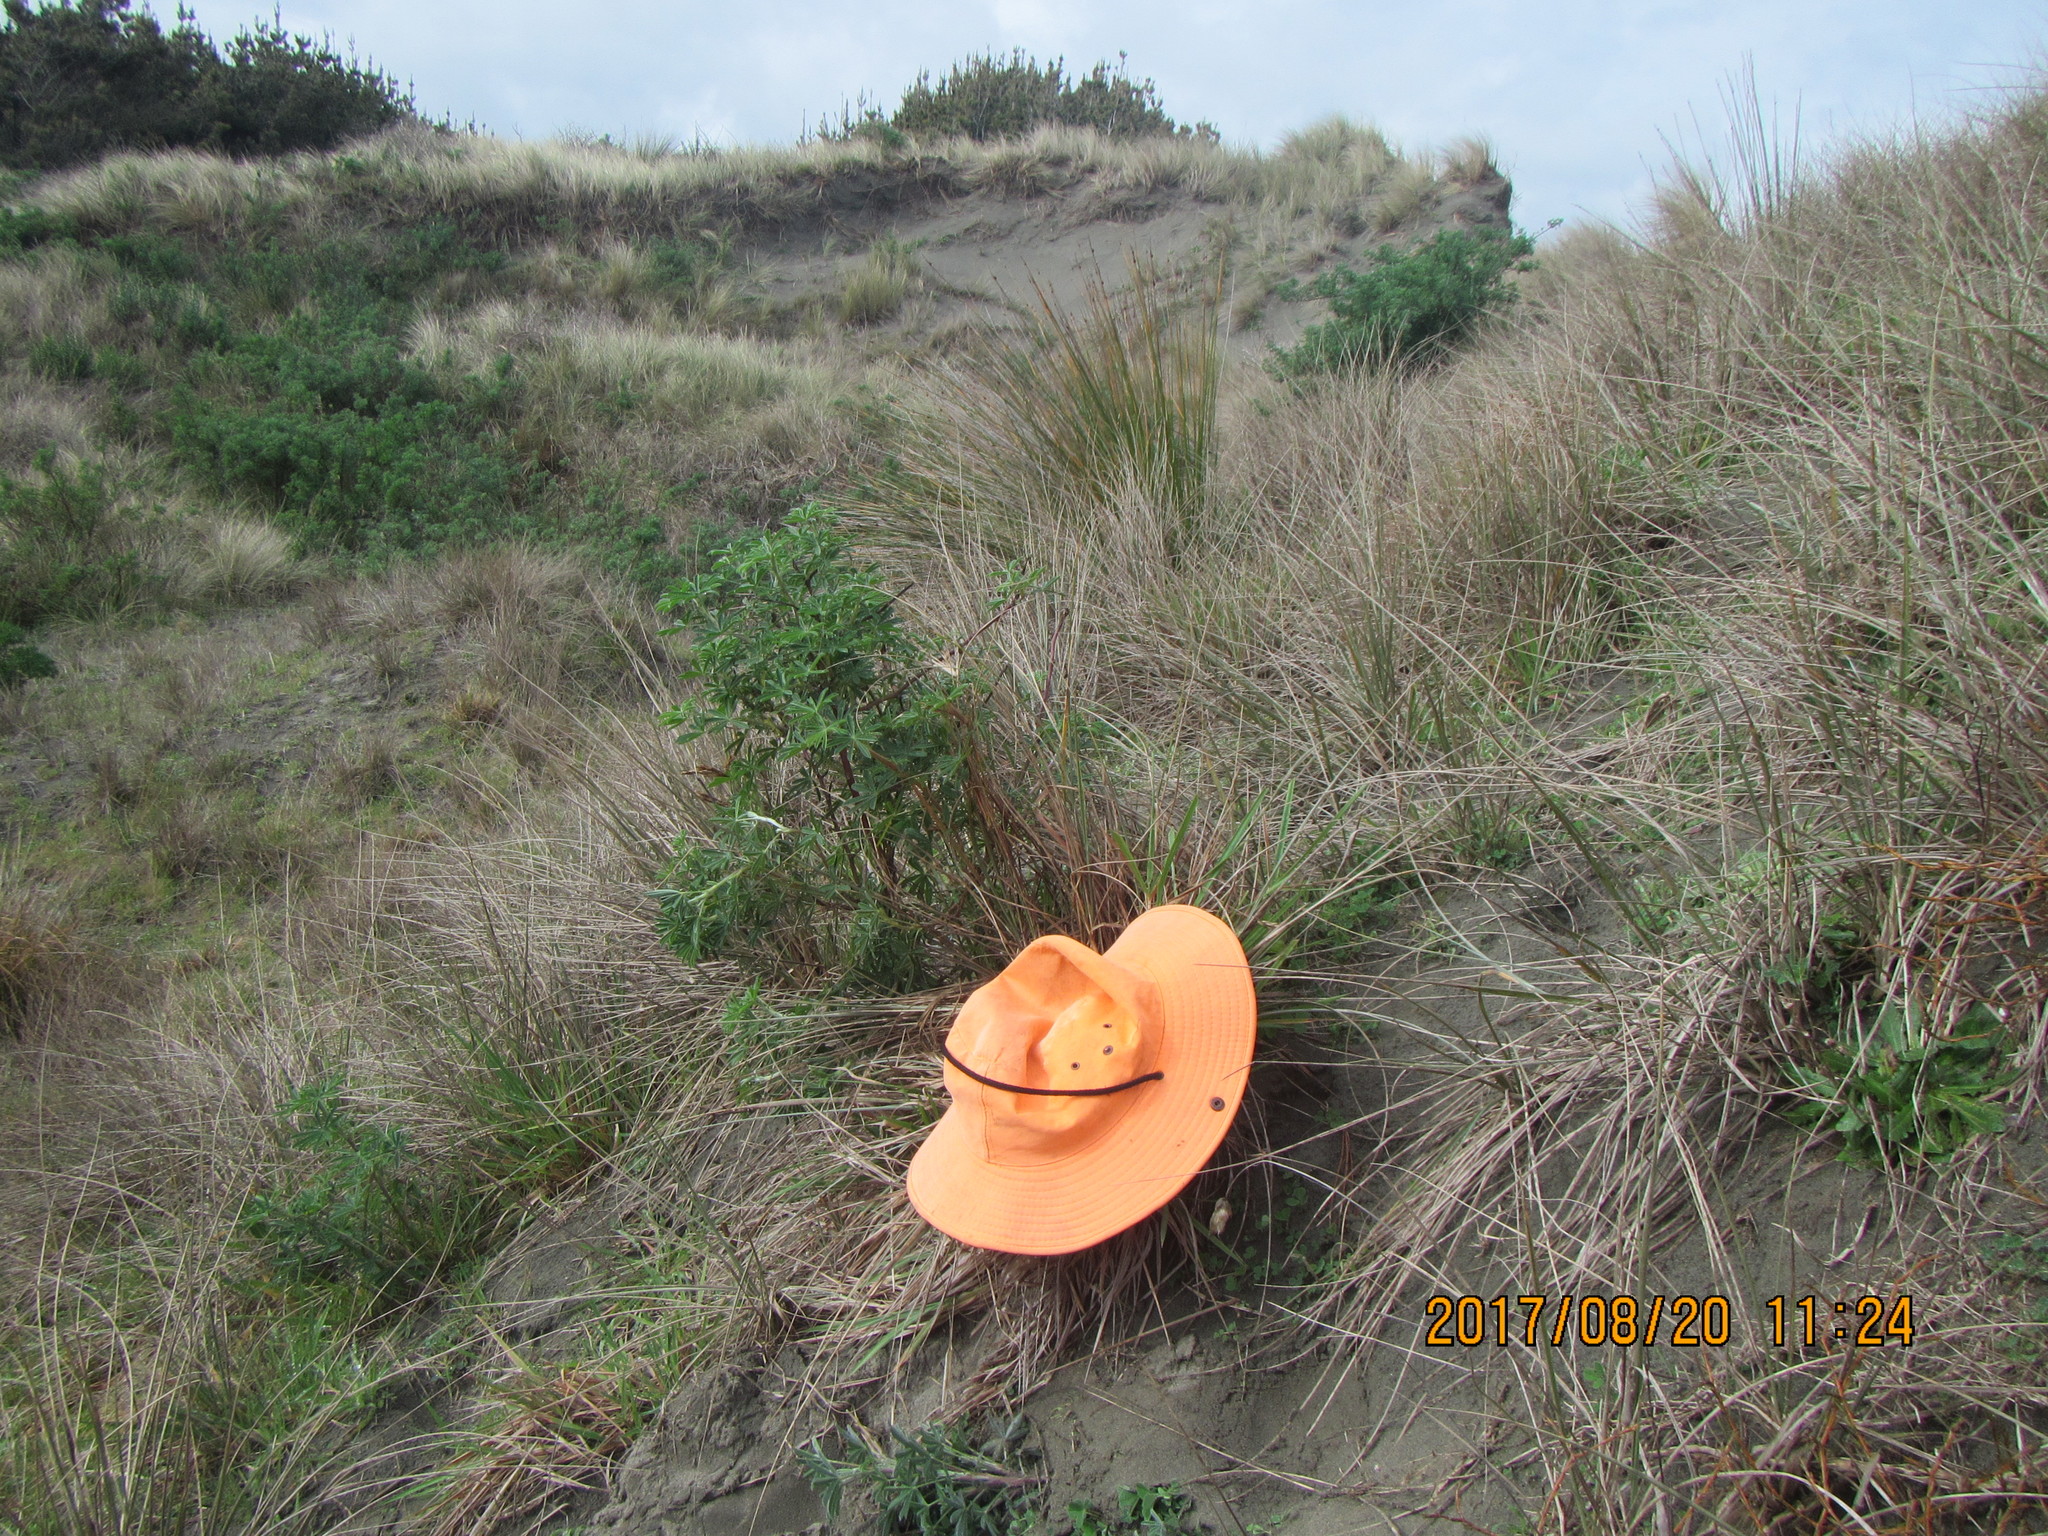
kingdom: Animalia
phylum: Arthropoda
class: Insecta
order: Blattodea
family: Blattidae
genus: Maoriblatta
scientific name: Maoriblatta novaeseelandiae
